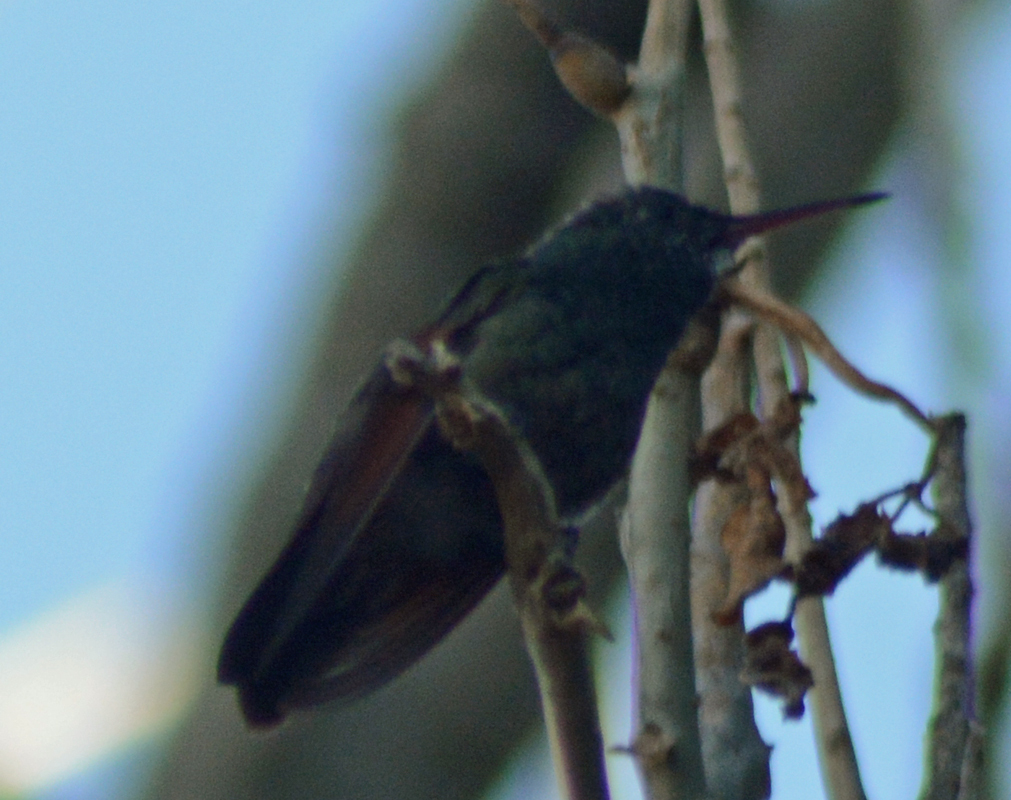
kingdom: Animalia
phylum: Chordata
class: Aves
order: Apodiformes
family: Trochilidae
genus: Saucerottia
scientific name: Saucerottia beryllina
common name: Berylline hummingbird
